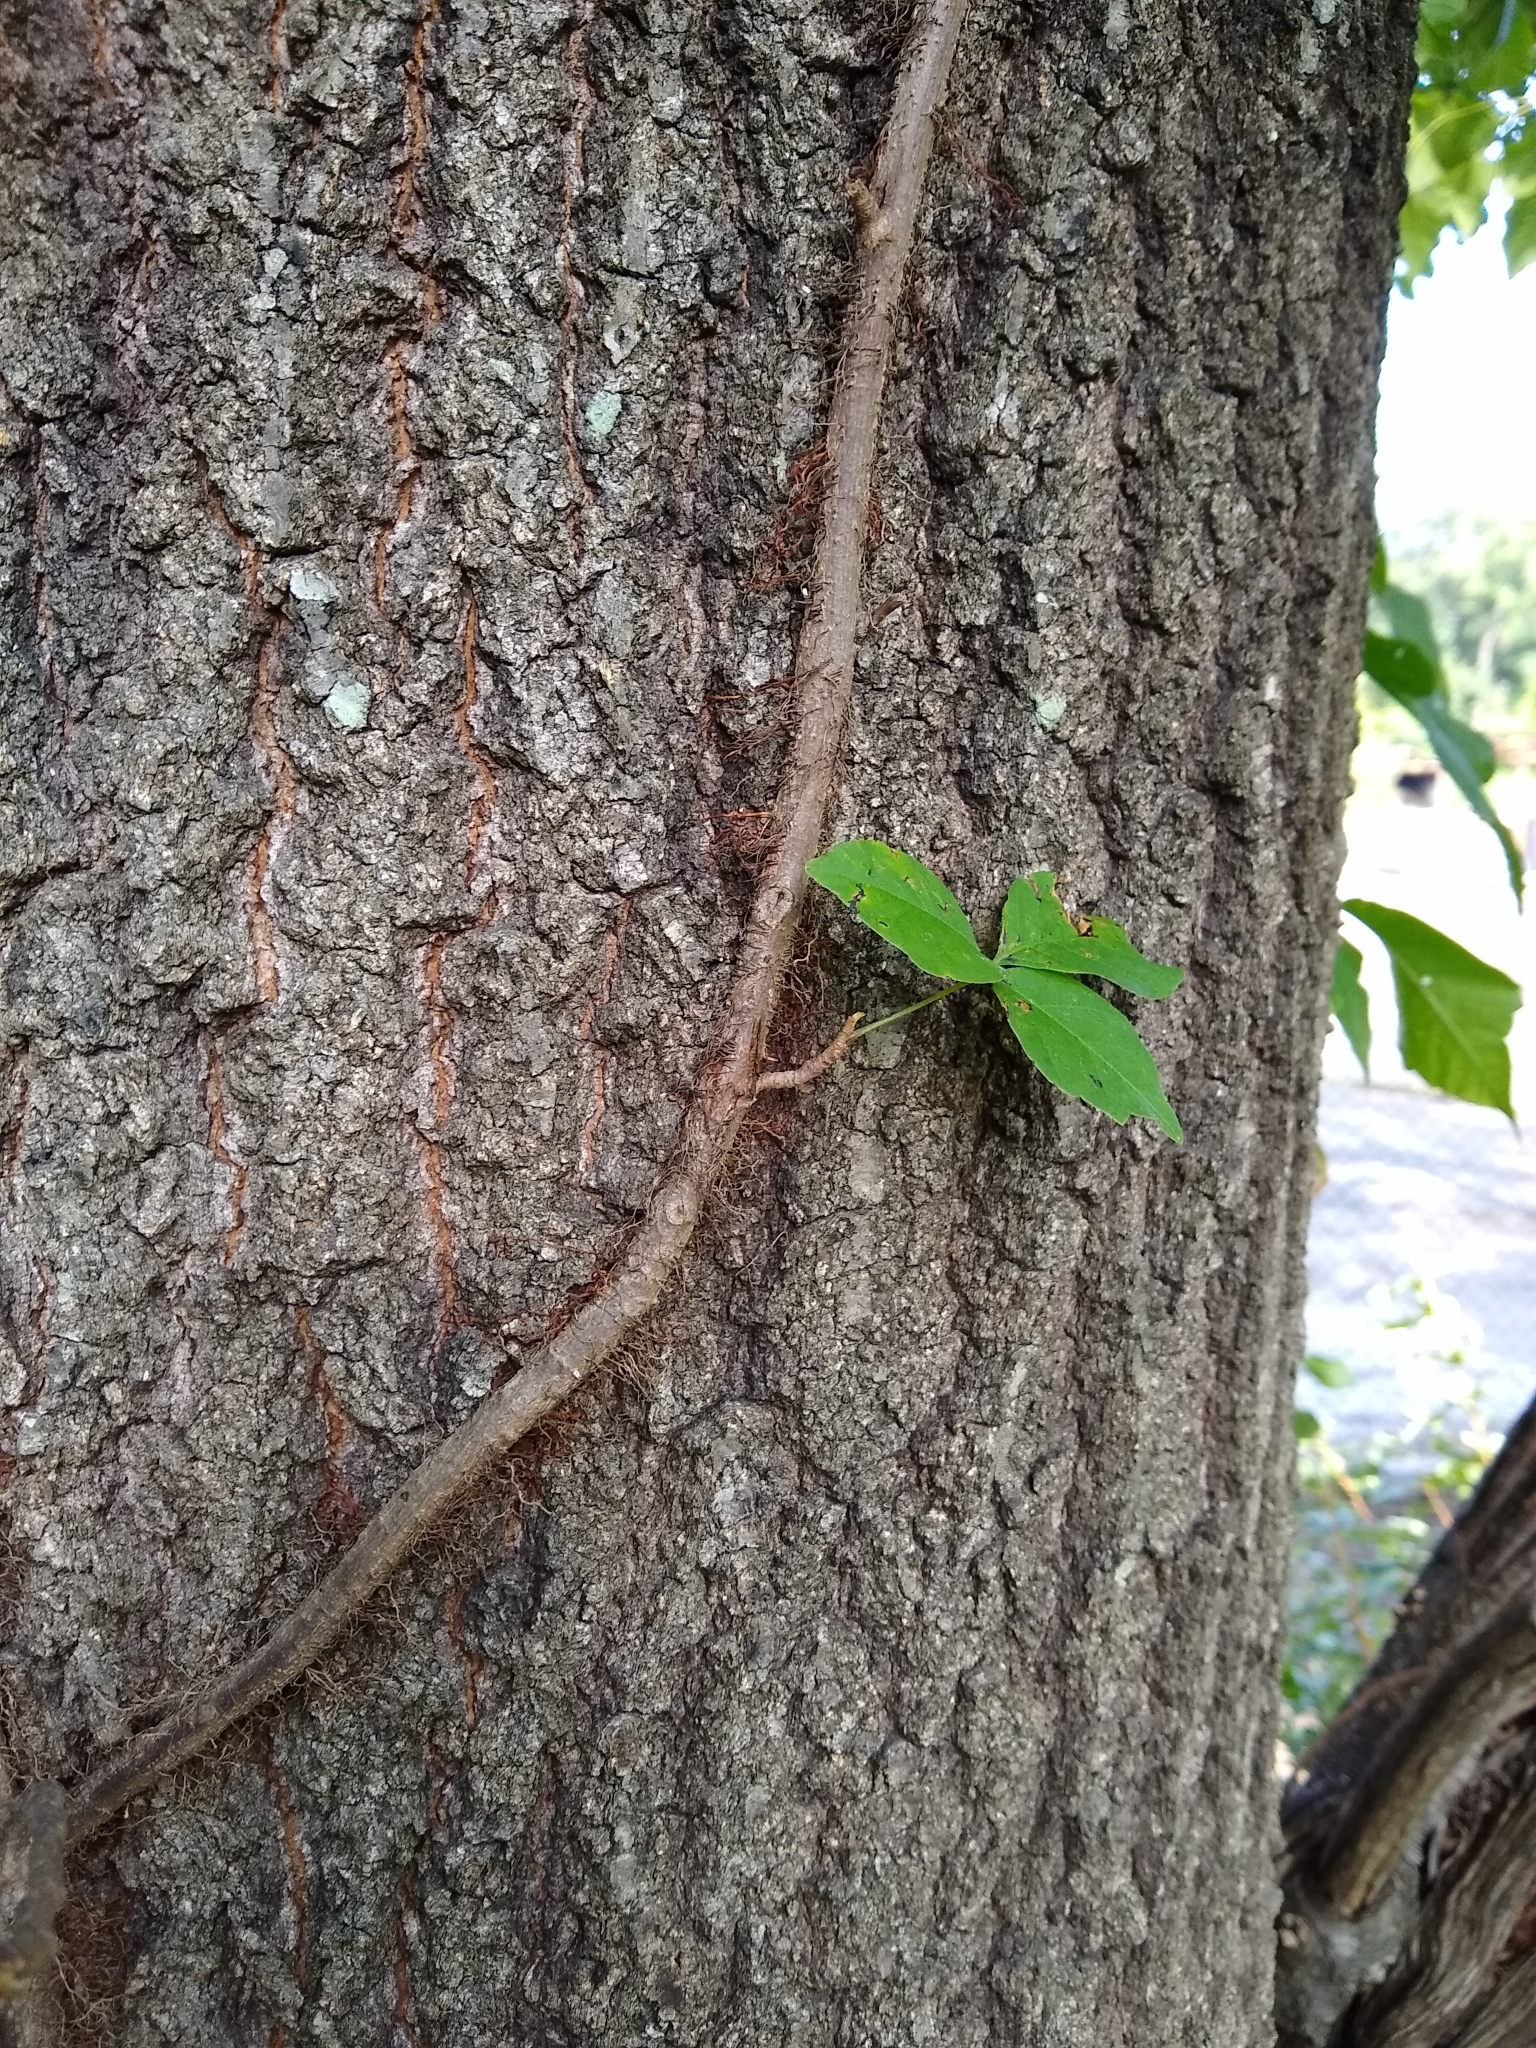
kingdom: Plantae
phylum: Tracheophyta
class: Magnoliopsida
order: Sapindales
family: Anacardiaceae
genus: Toxicodendron
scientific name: Toxicodendron radicans
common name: Poison ivy
